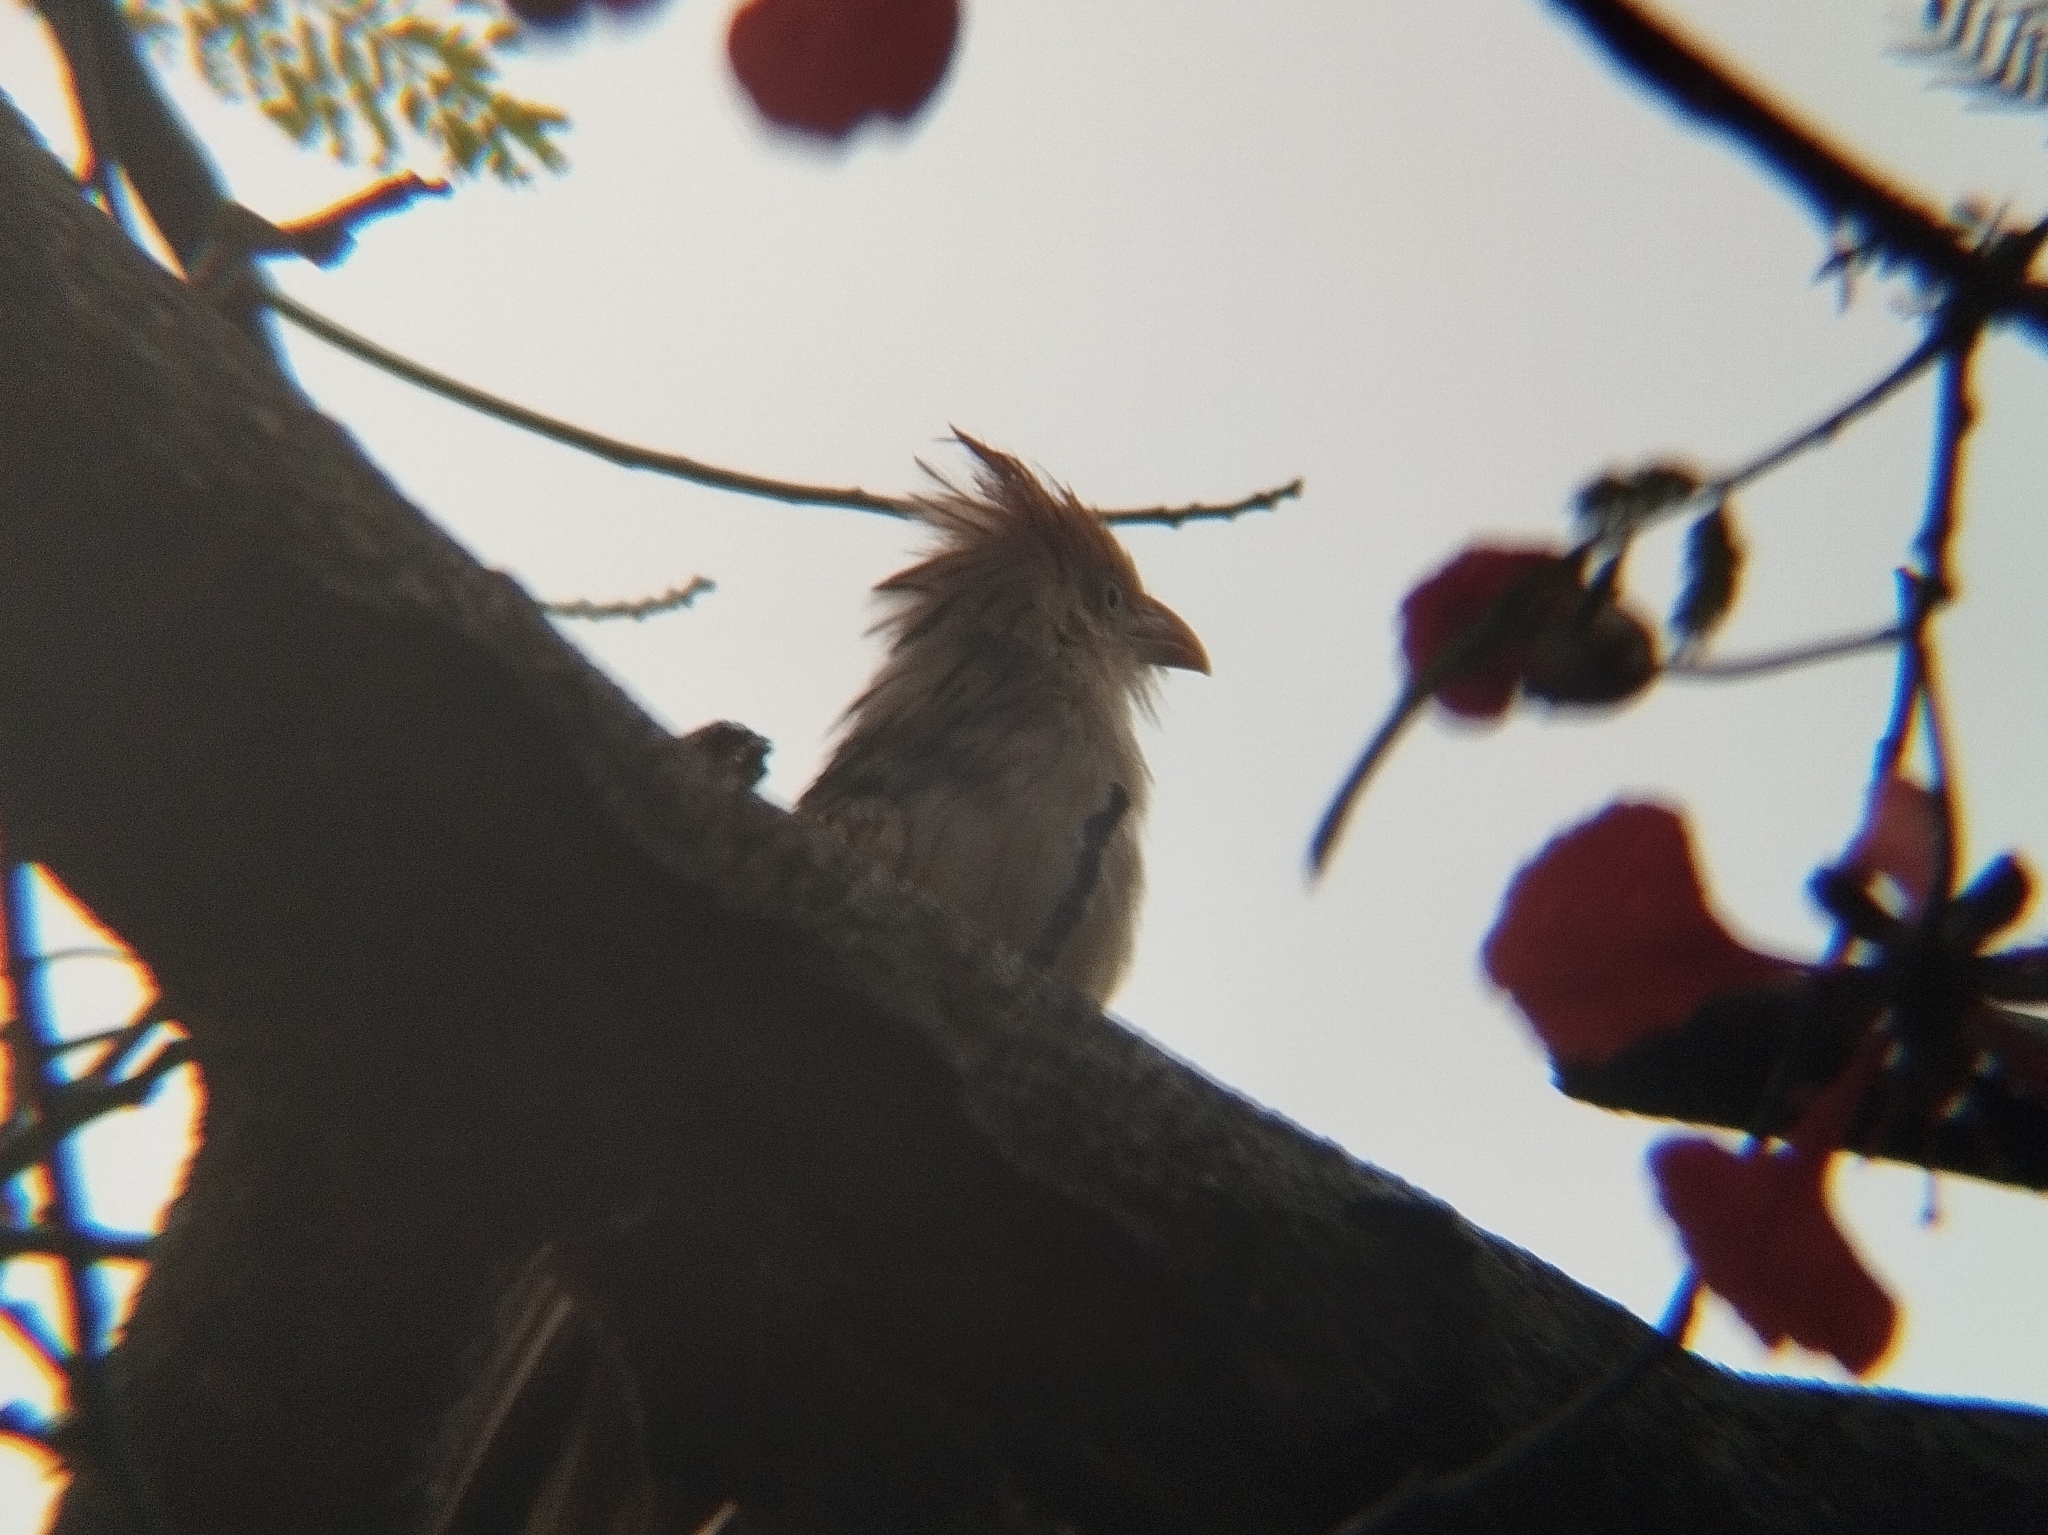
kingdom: Animalia
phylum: Chordata
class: Aves
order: Cuculiformes
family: Cuculidae
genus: Guira
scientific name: Guira guira
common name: Guira cuckoo
